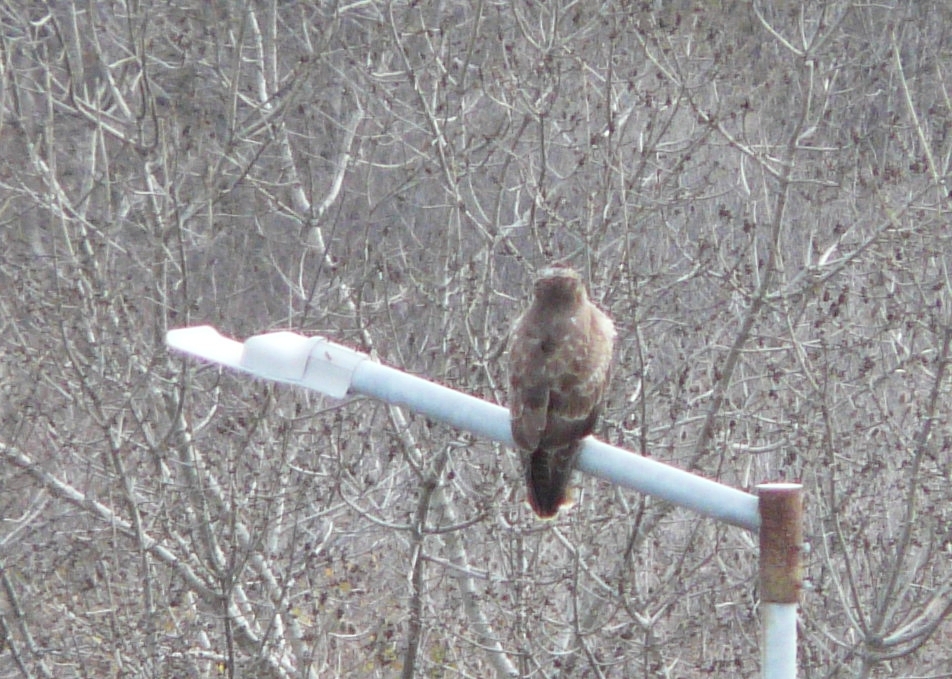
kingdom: Animalia
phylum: Chordata
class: Aves
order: Accipitriformes
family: Accipitridae
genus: Buteo
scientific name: Buteo buteo
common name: Common buzzard
